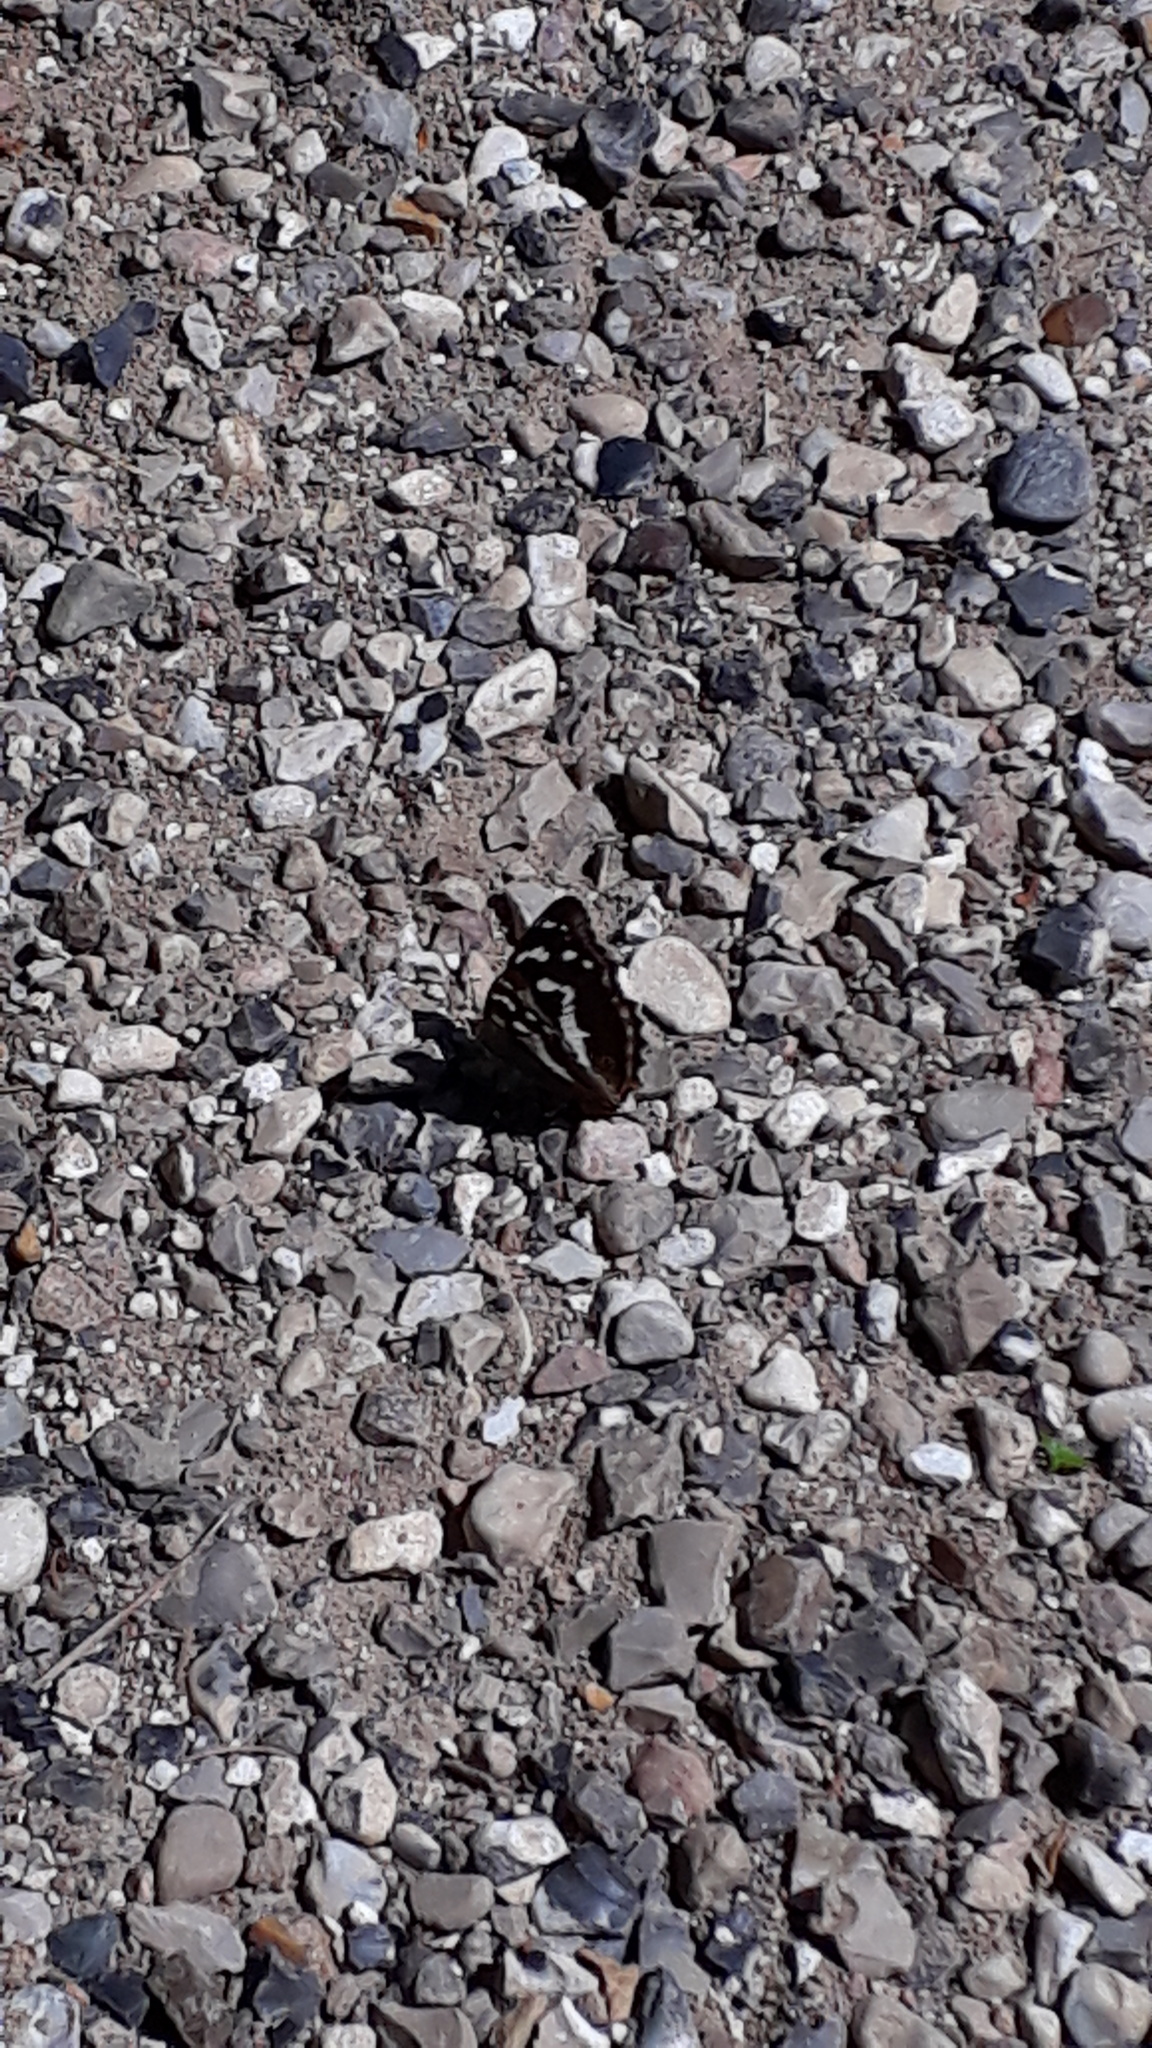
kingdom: Animalia
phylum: Arthropoda
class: Insecta
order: Lepidoptera
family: Nymphalidae
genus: Apatura
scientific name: Apatura iris
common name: Purple emperor
